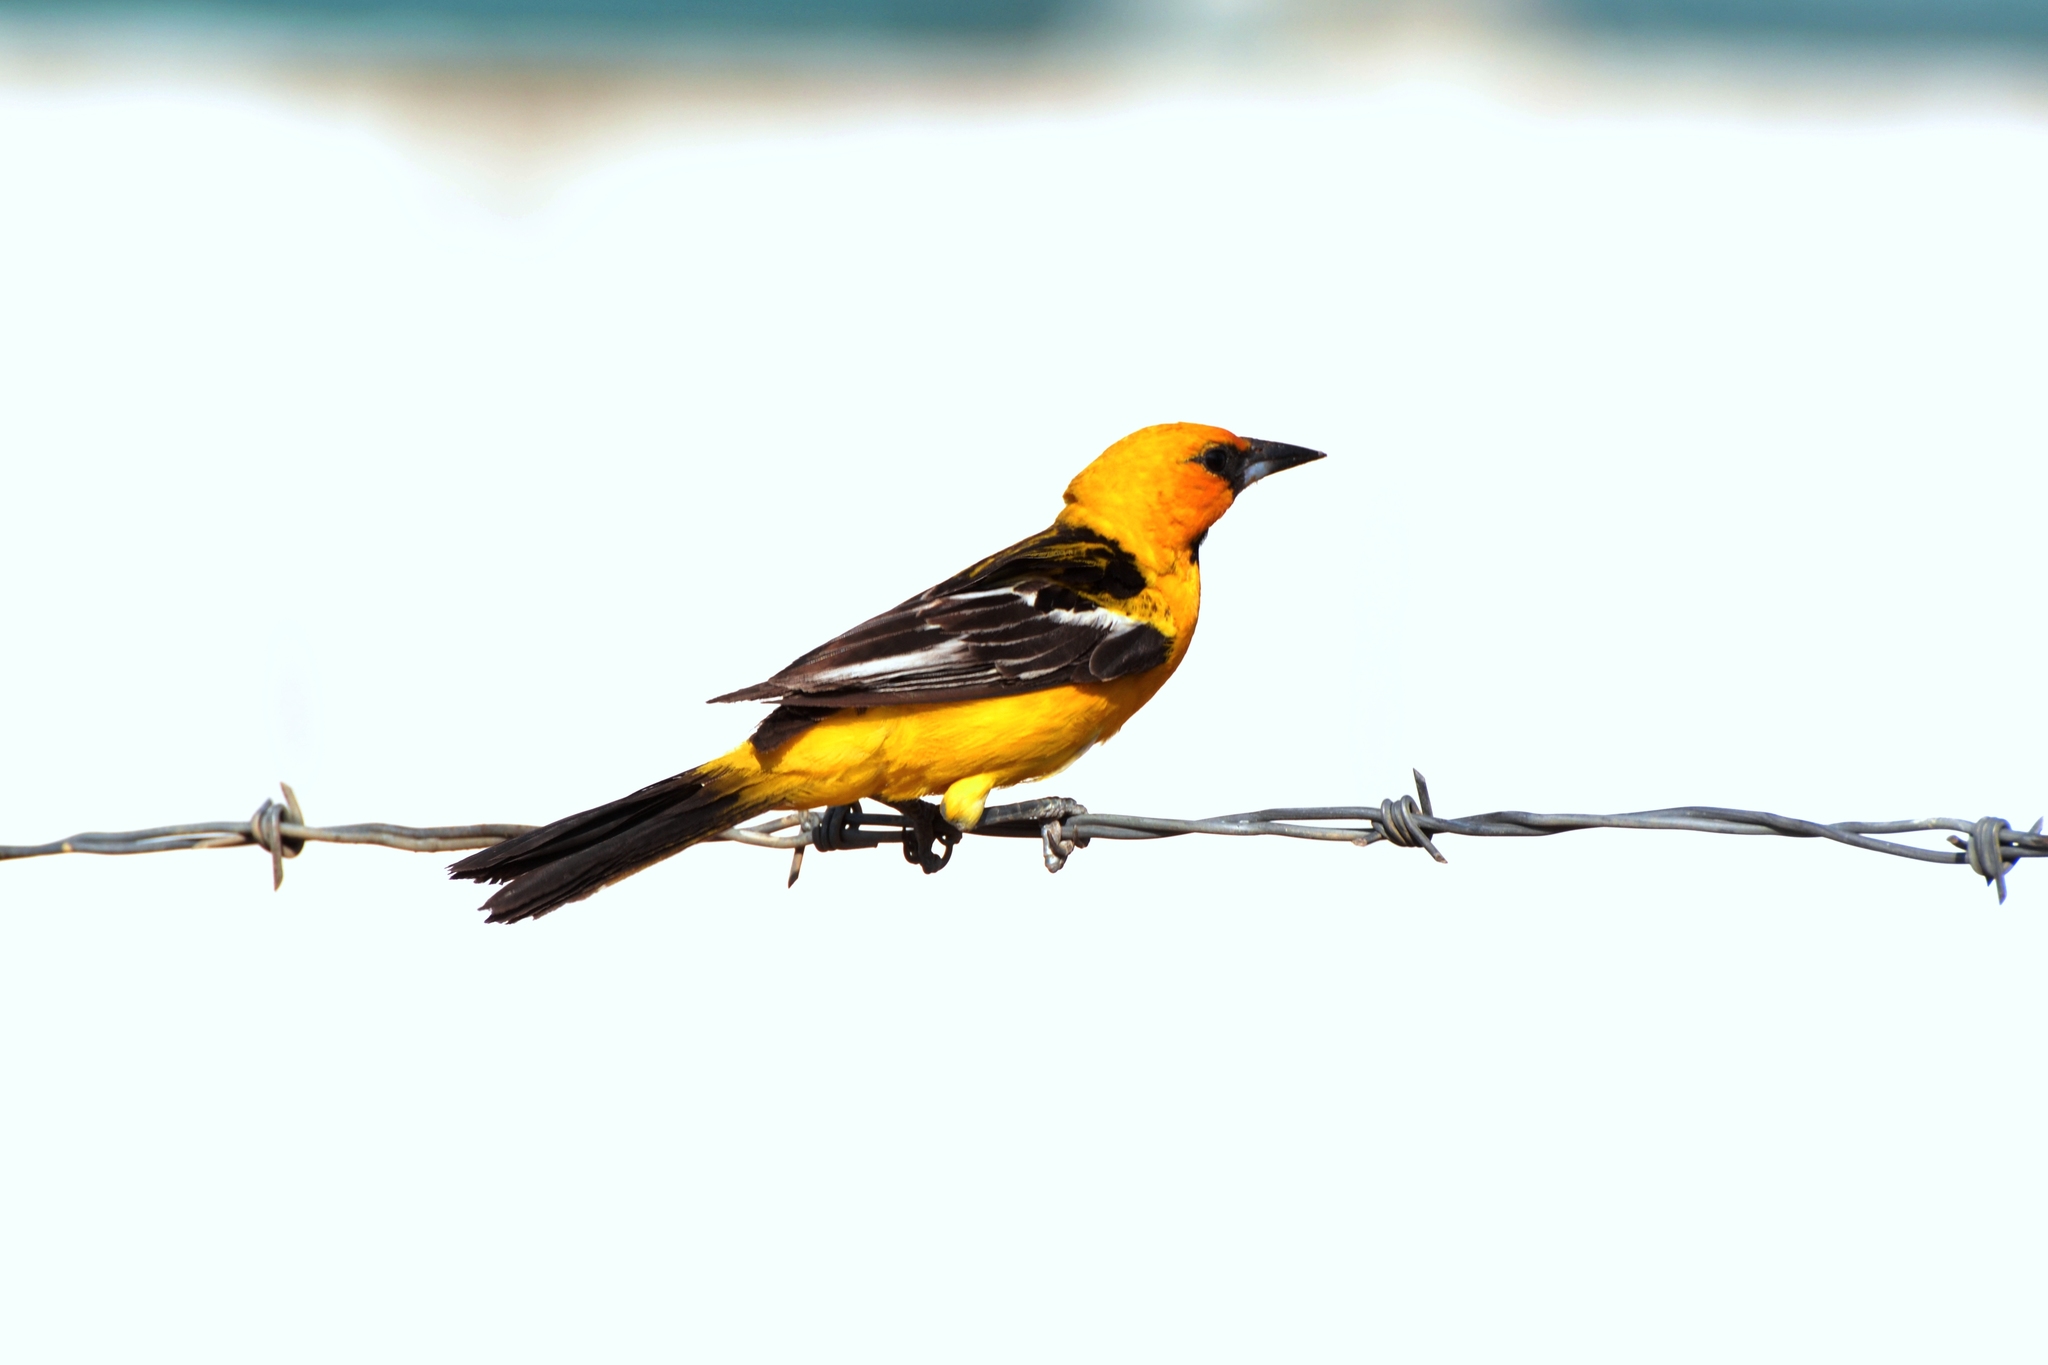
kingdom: Animalia
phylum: Chordata
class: Aves
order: Passeriformes
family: Icteridae
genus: Icterus
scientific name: Icterus gularis
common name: Altamira oriole
